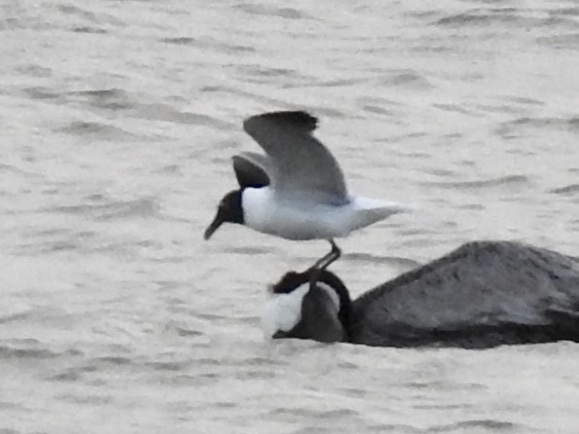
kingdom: Animalia
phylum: Chordata
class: Aves
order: Charadriiformes
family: Laridae
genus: Leucophaeus
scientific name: Leucophaeus atricilla
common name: Laughing gull
